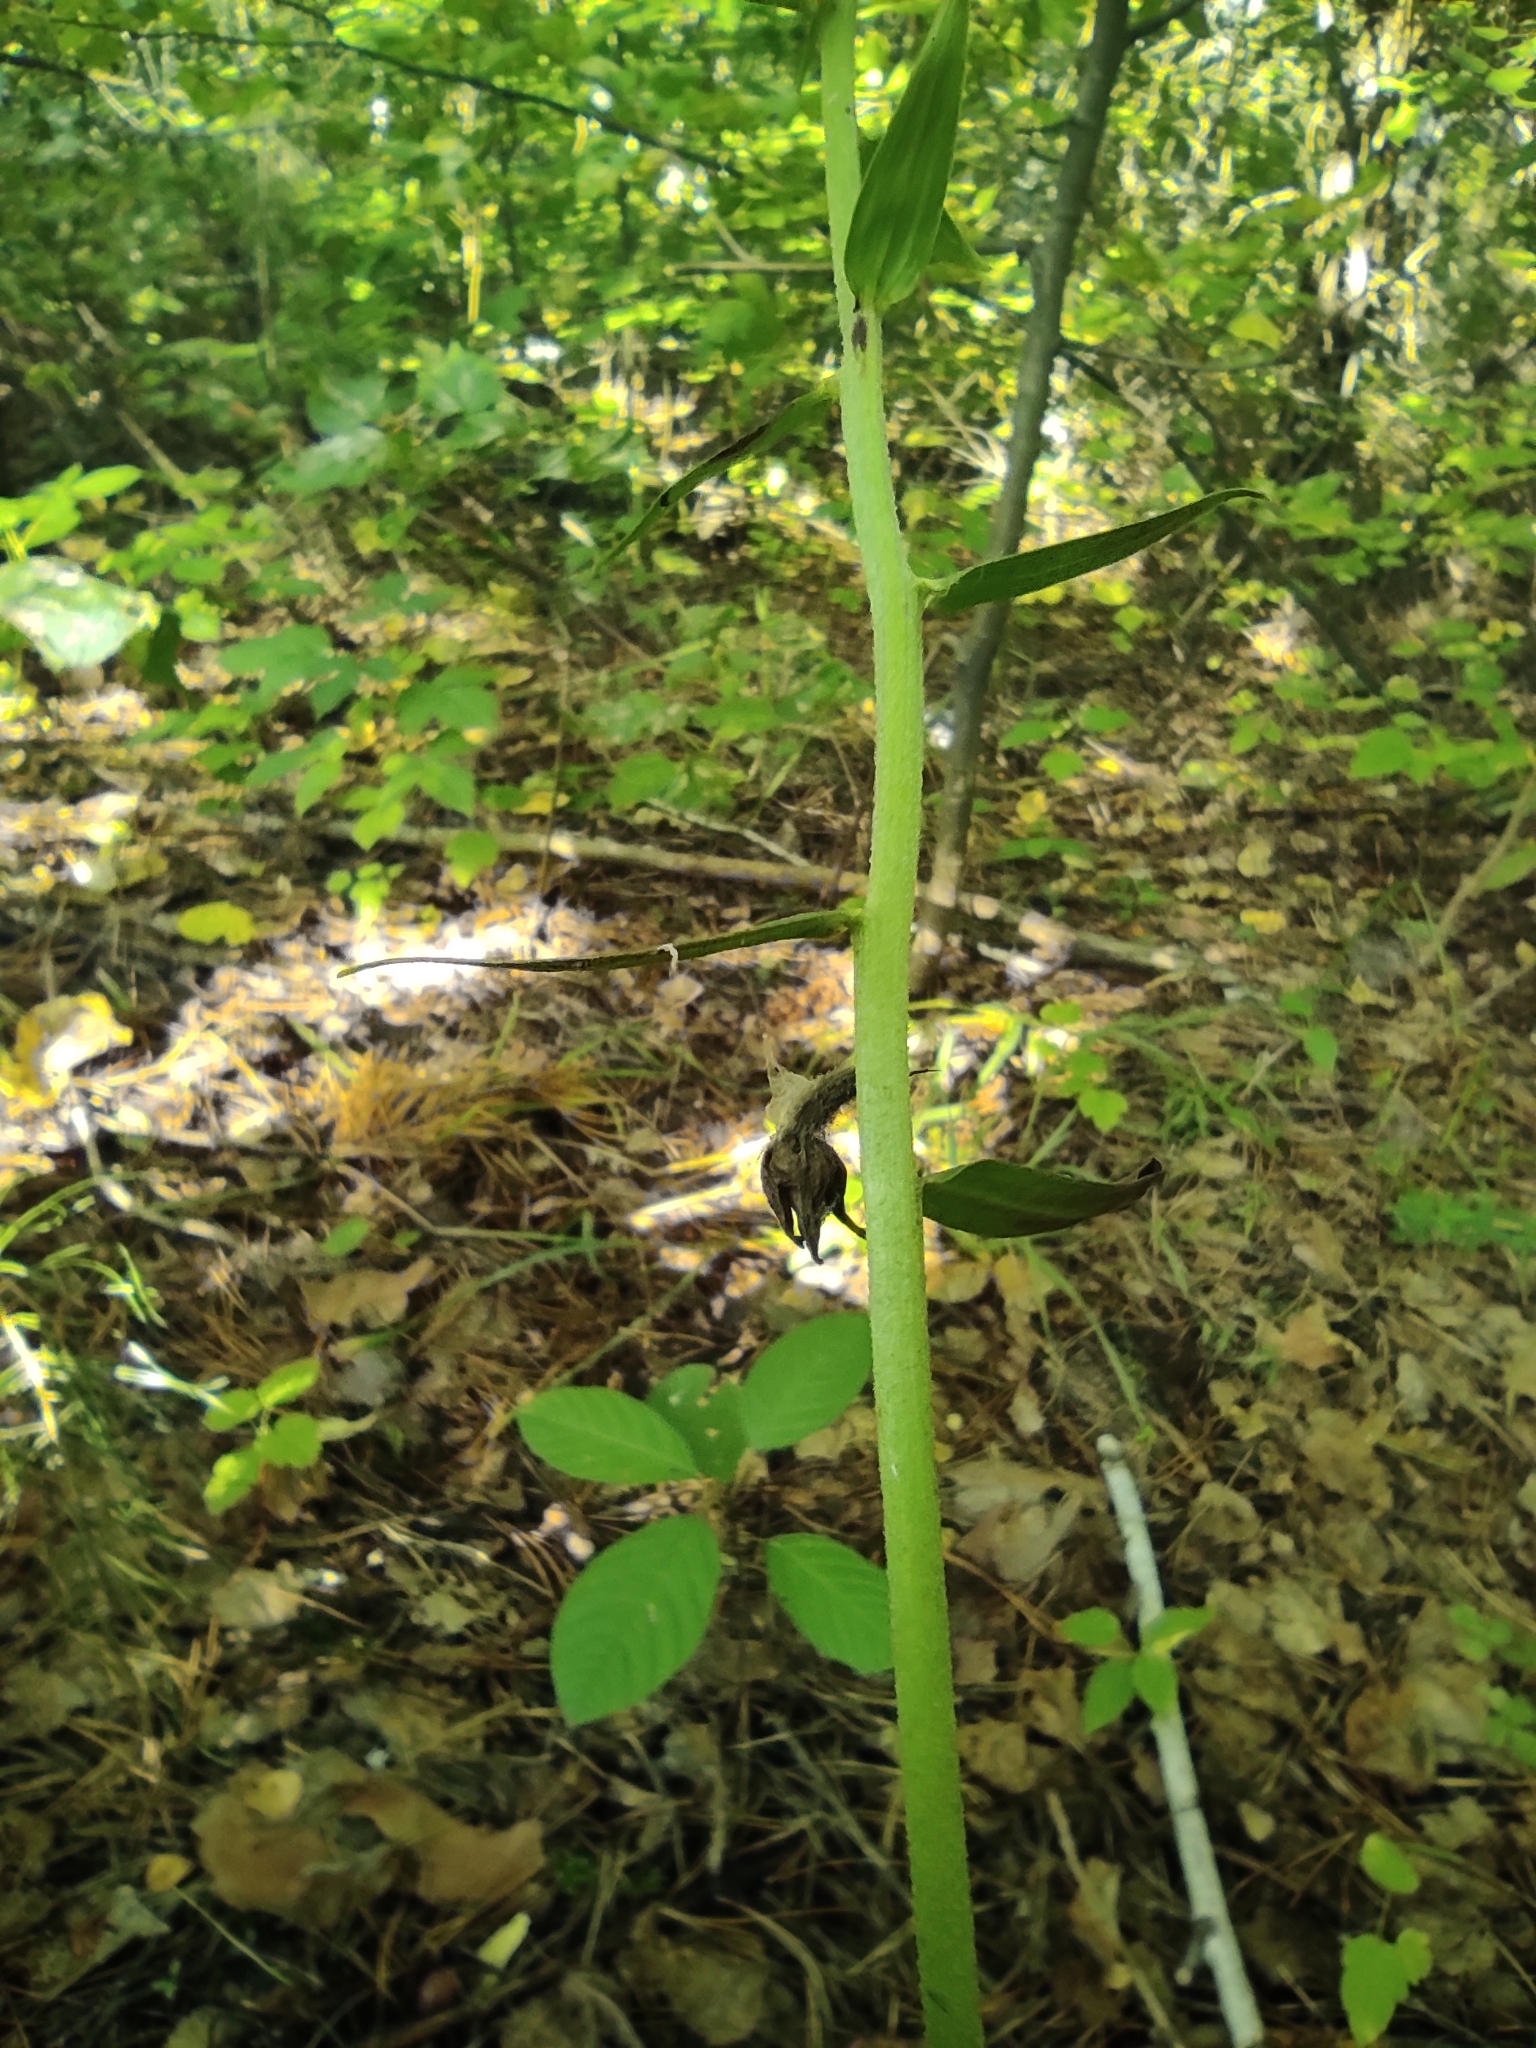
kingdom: Plantae
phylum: Tracheophyta
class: Liliopsida
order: Asparagales
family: Orchidaceae
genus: Epipactis
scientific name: Epipactis helleborine
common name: Broad-leaved helleborine
